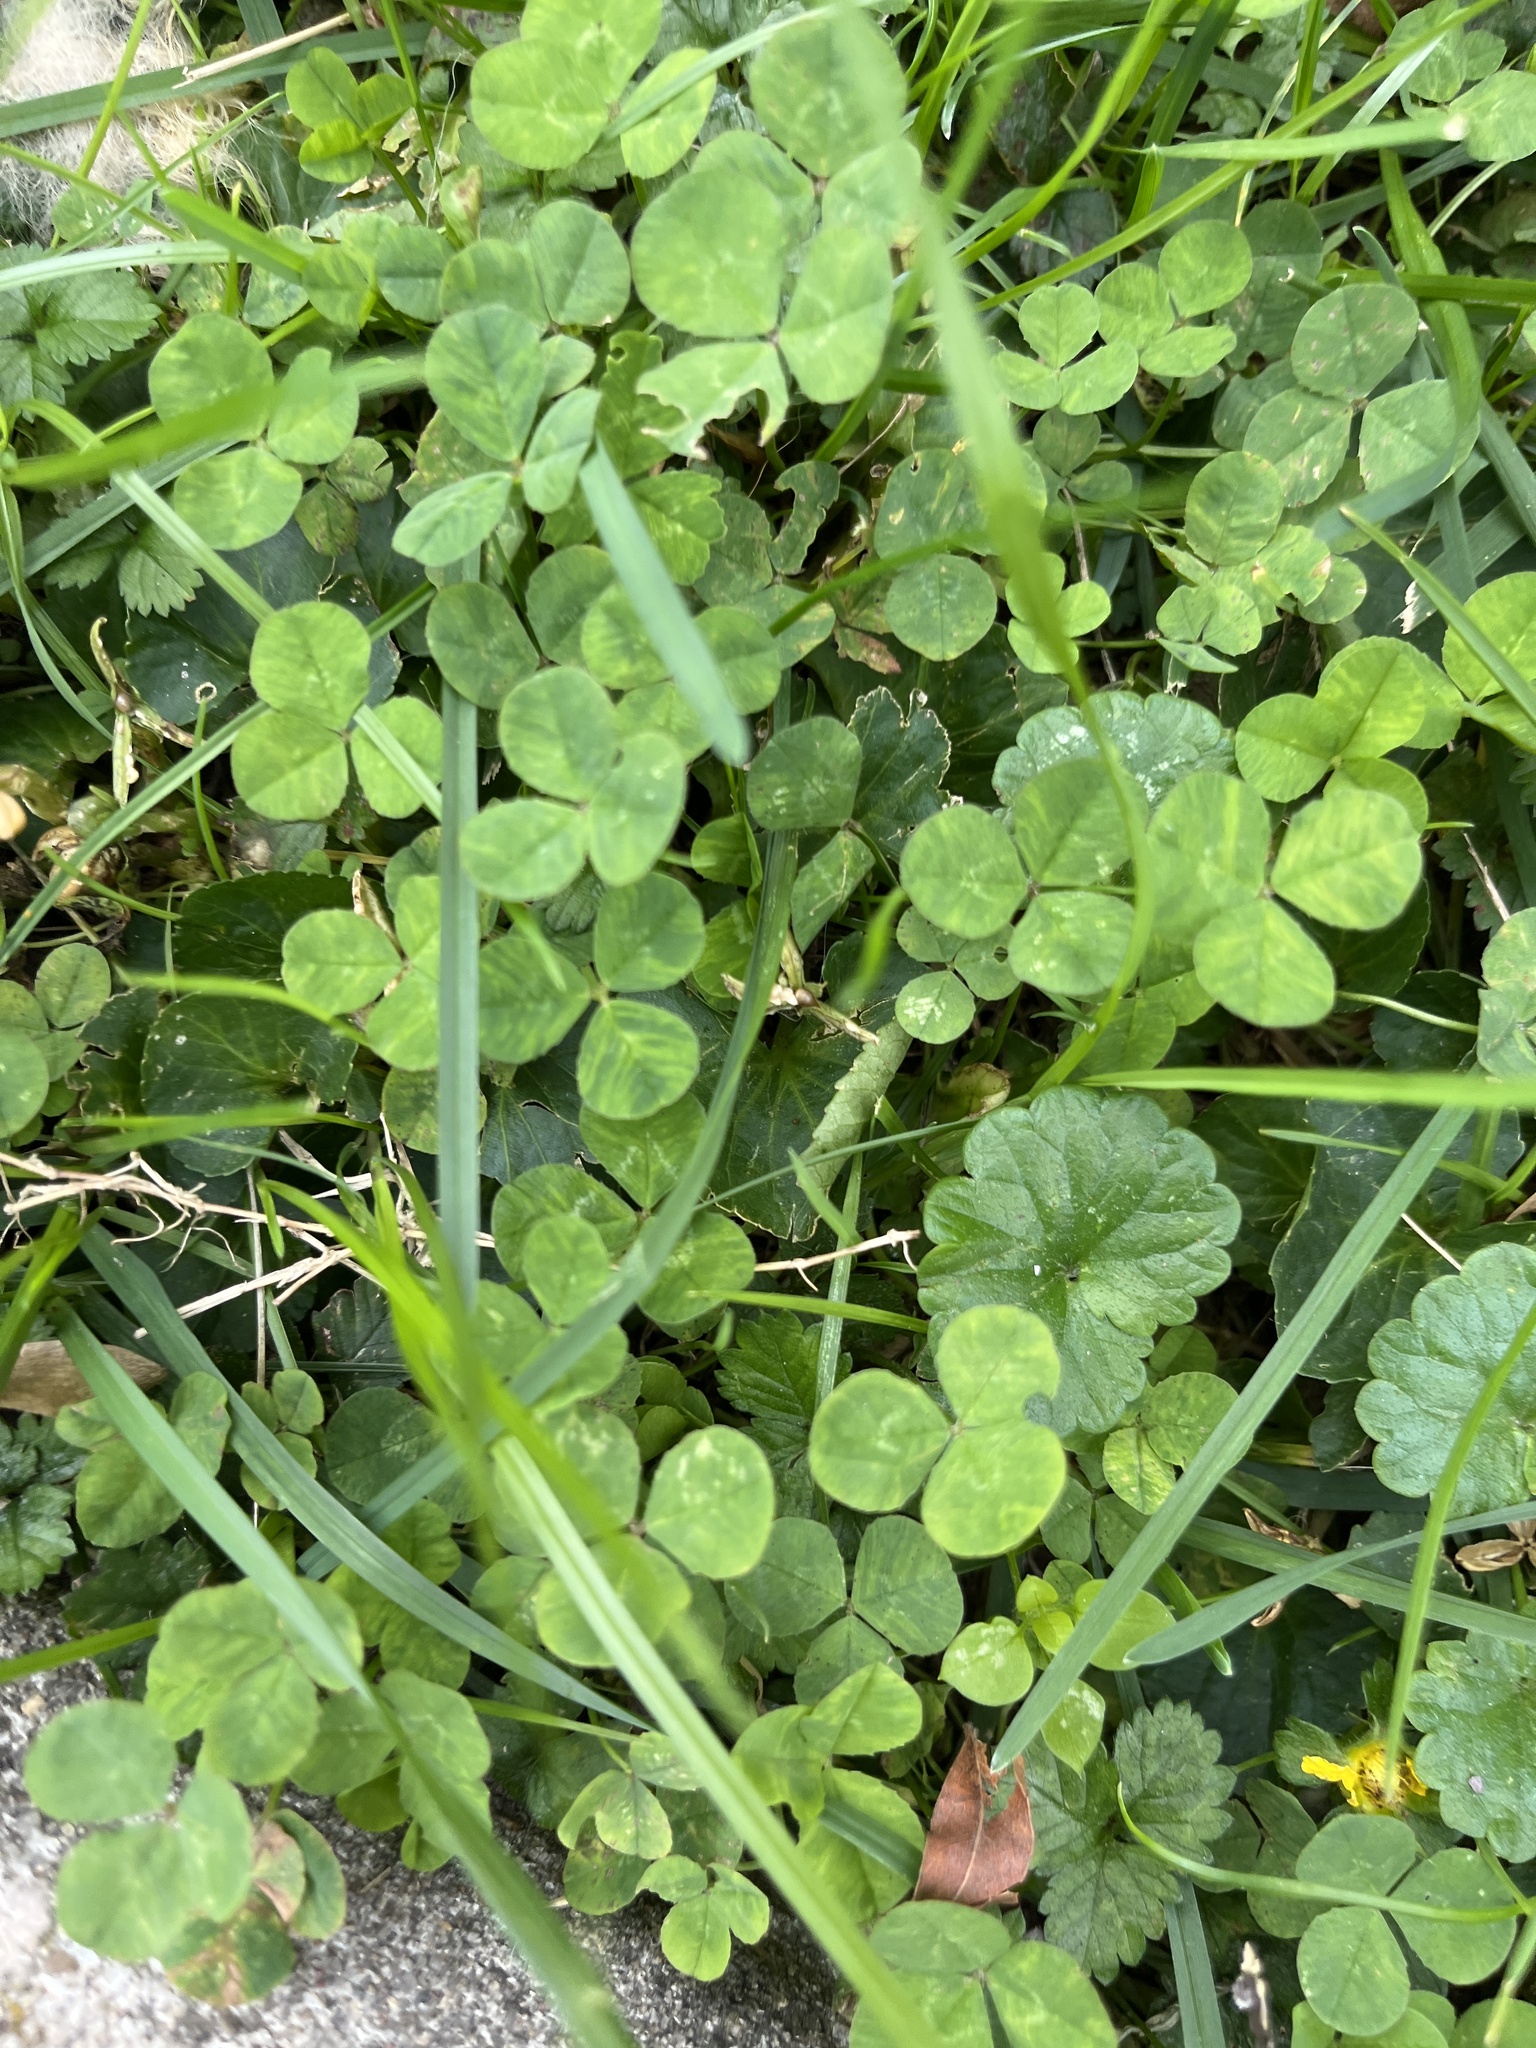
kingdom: Plantae
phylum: Tracheophyta
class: Magnoliopsida
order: Fabales
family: Fabaceae
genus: Trifolium
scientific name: Trifolium repens
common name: White clover
